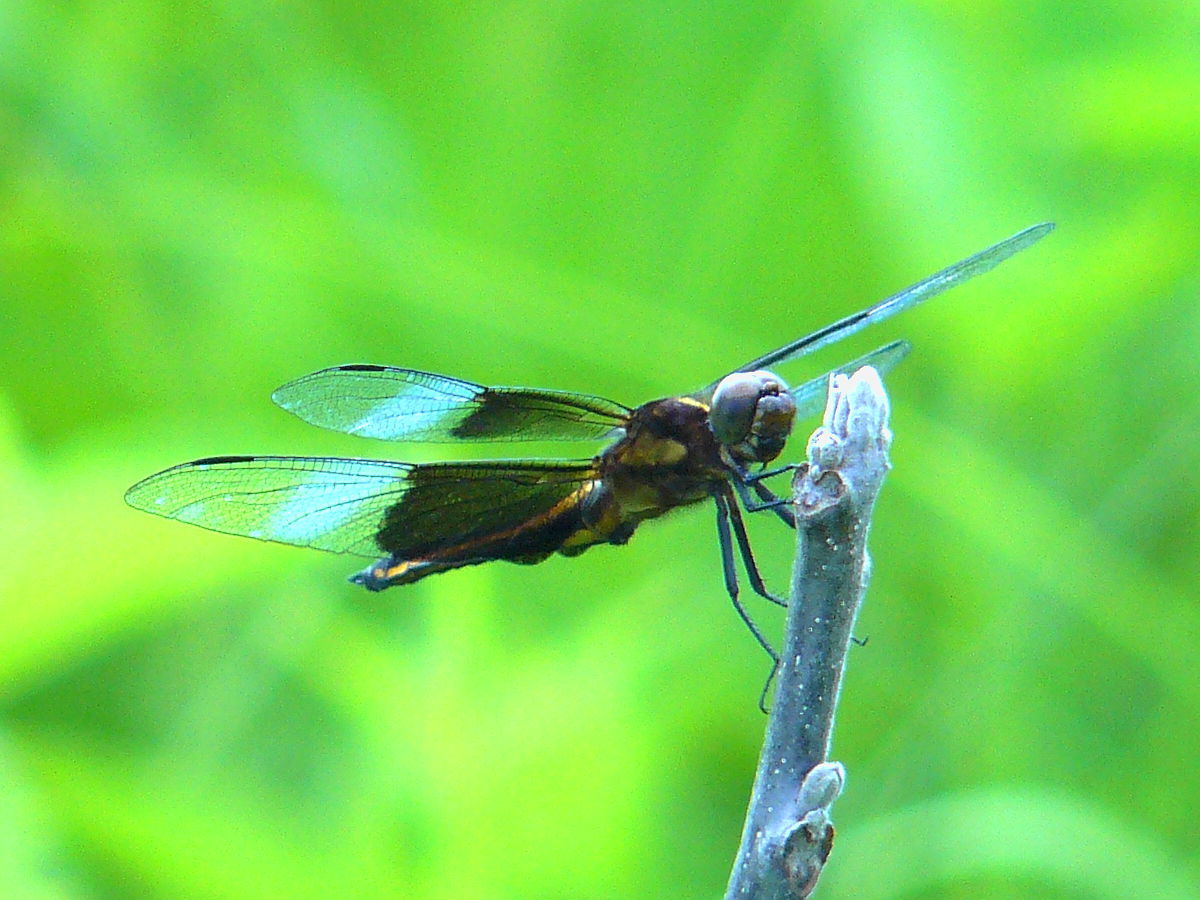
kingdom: Animalia
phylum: Arthropoda
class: Insecta
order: Odonata
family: Libellulidae
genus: Libellula
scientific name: Libellula luctuosa
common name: Widow skimmer
